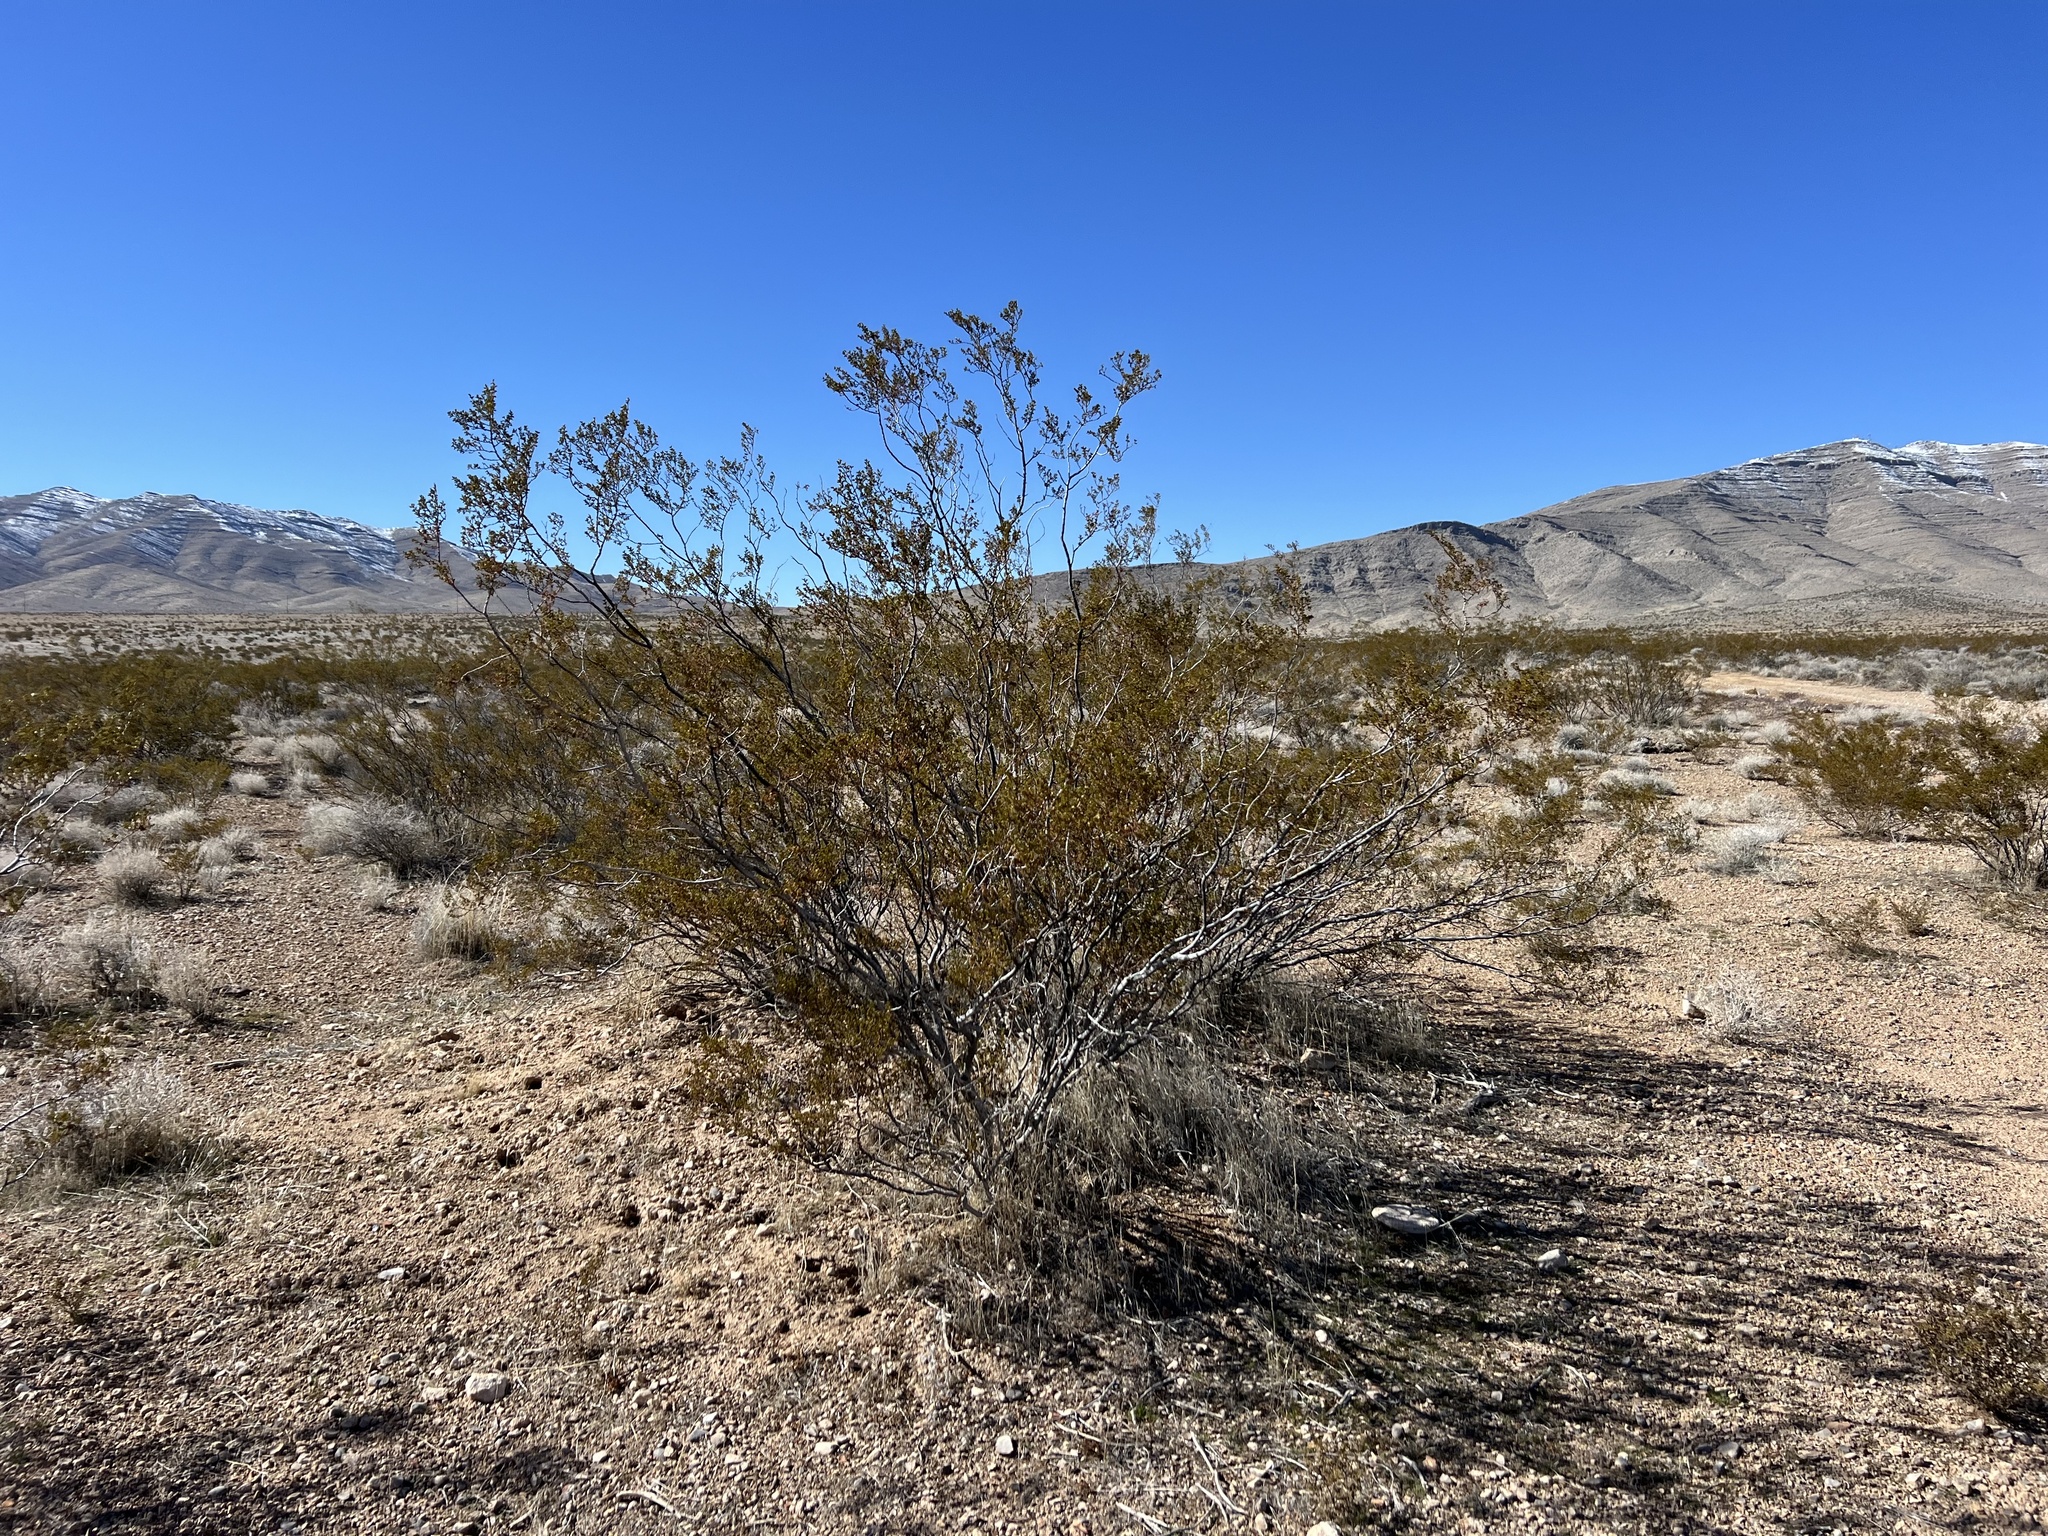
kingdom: Plantae
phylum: Tracheophyta
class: Magnoliopsida
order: Zygophyllales
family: Zygophyllaceae
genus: Larrea
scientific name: Larrea tridentata
